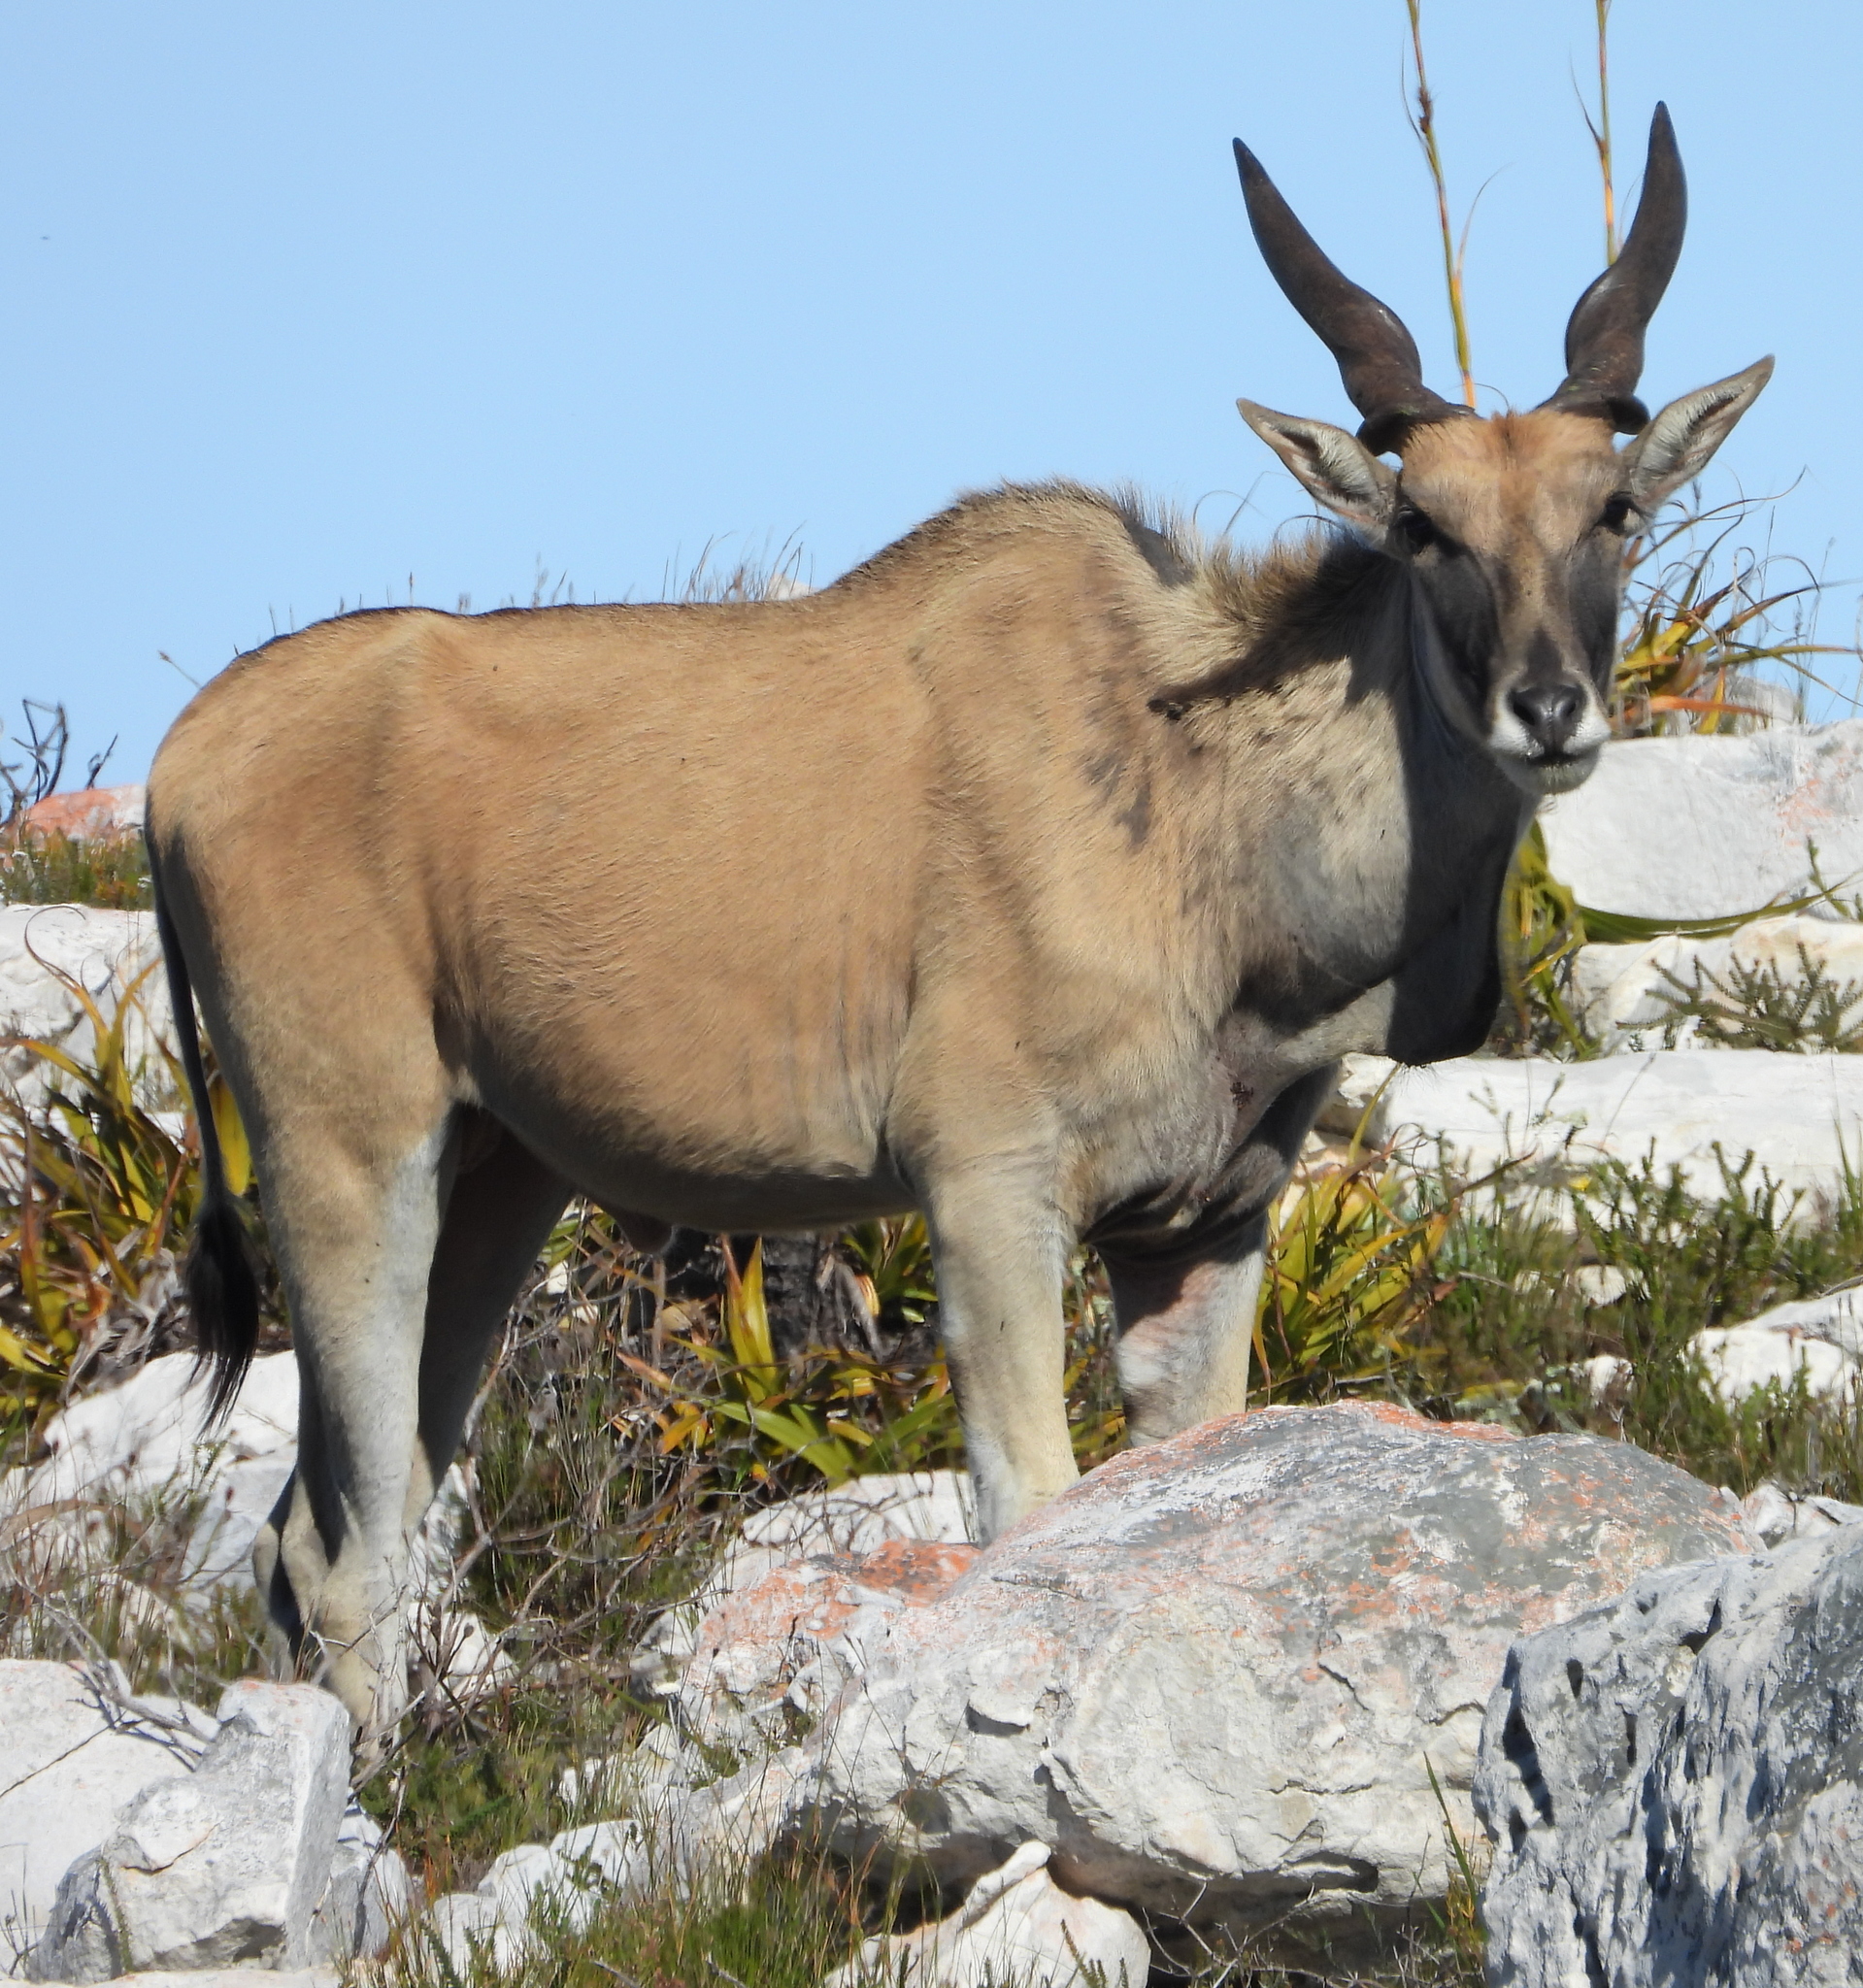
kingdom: Animalia
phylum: Chordata
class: Mammalia
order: Artiodactyla
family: Bovidae
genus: Taurotragus
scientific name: Taurotragus oryx
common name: Common eland
